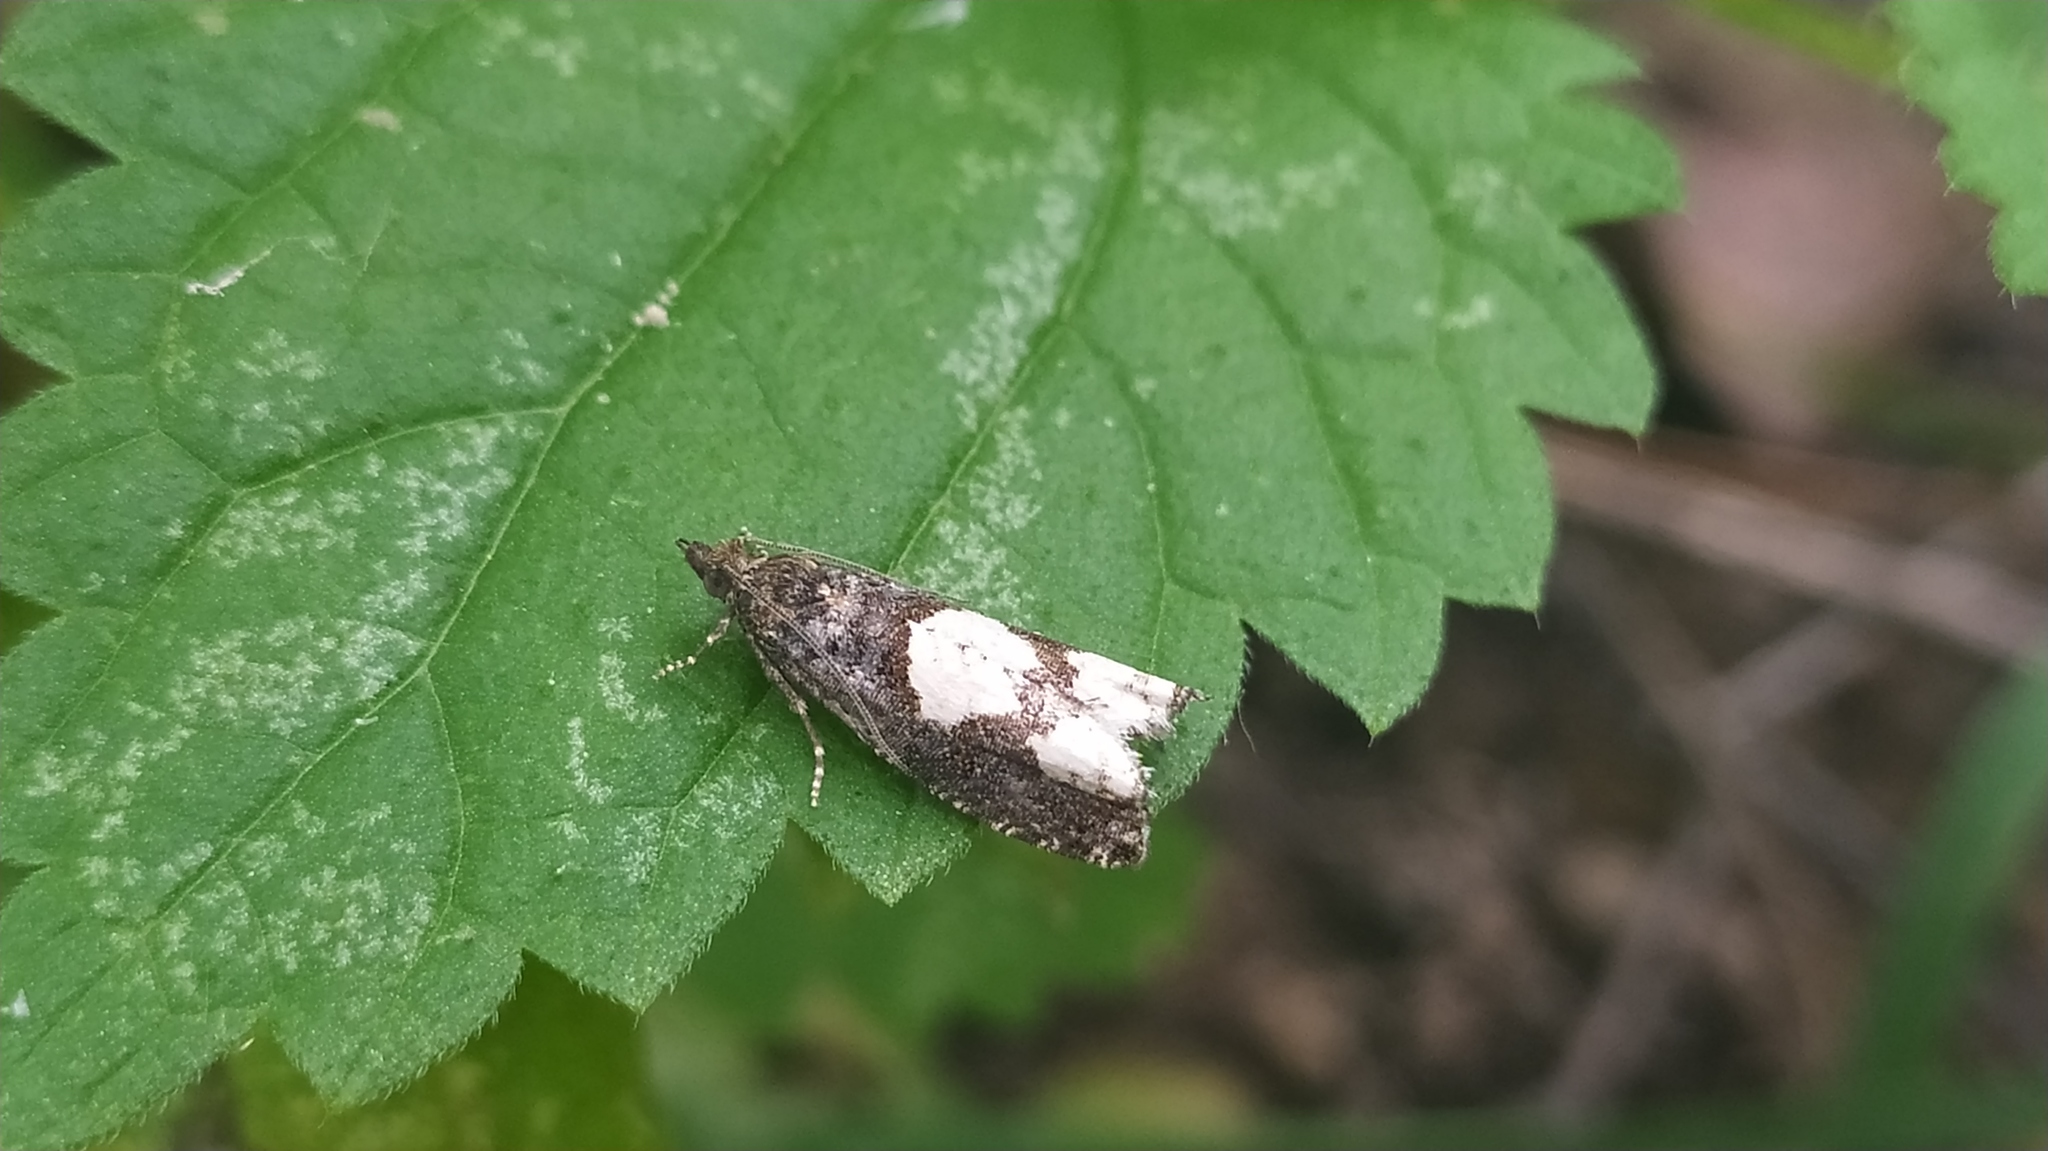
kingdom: Animalia
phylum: Arthropoda
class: Insecta
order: Lepidoptera
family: Tortricidae
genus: Epinotia
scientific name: Epinotia trigonella
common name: White-blotch bell
